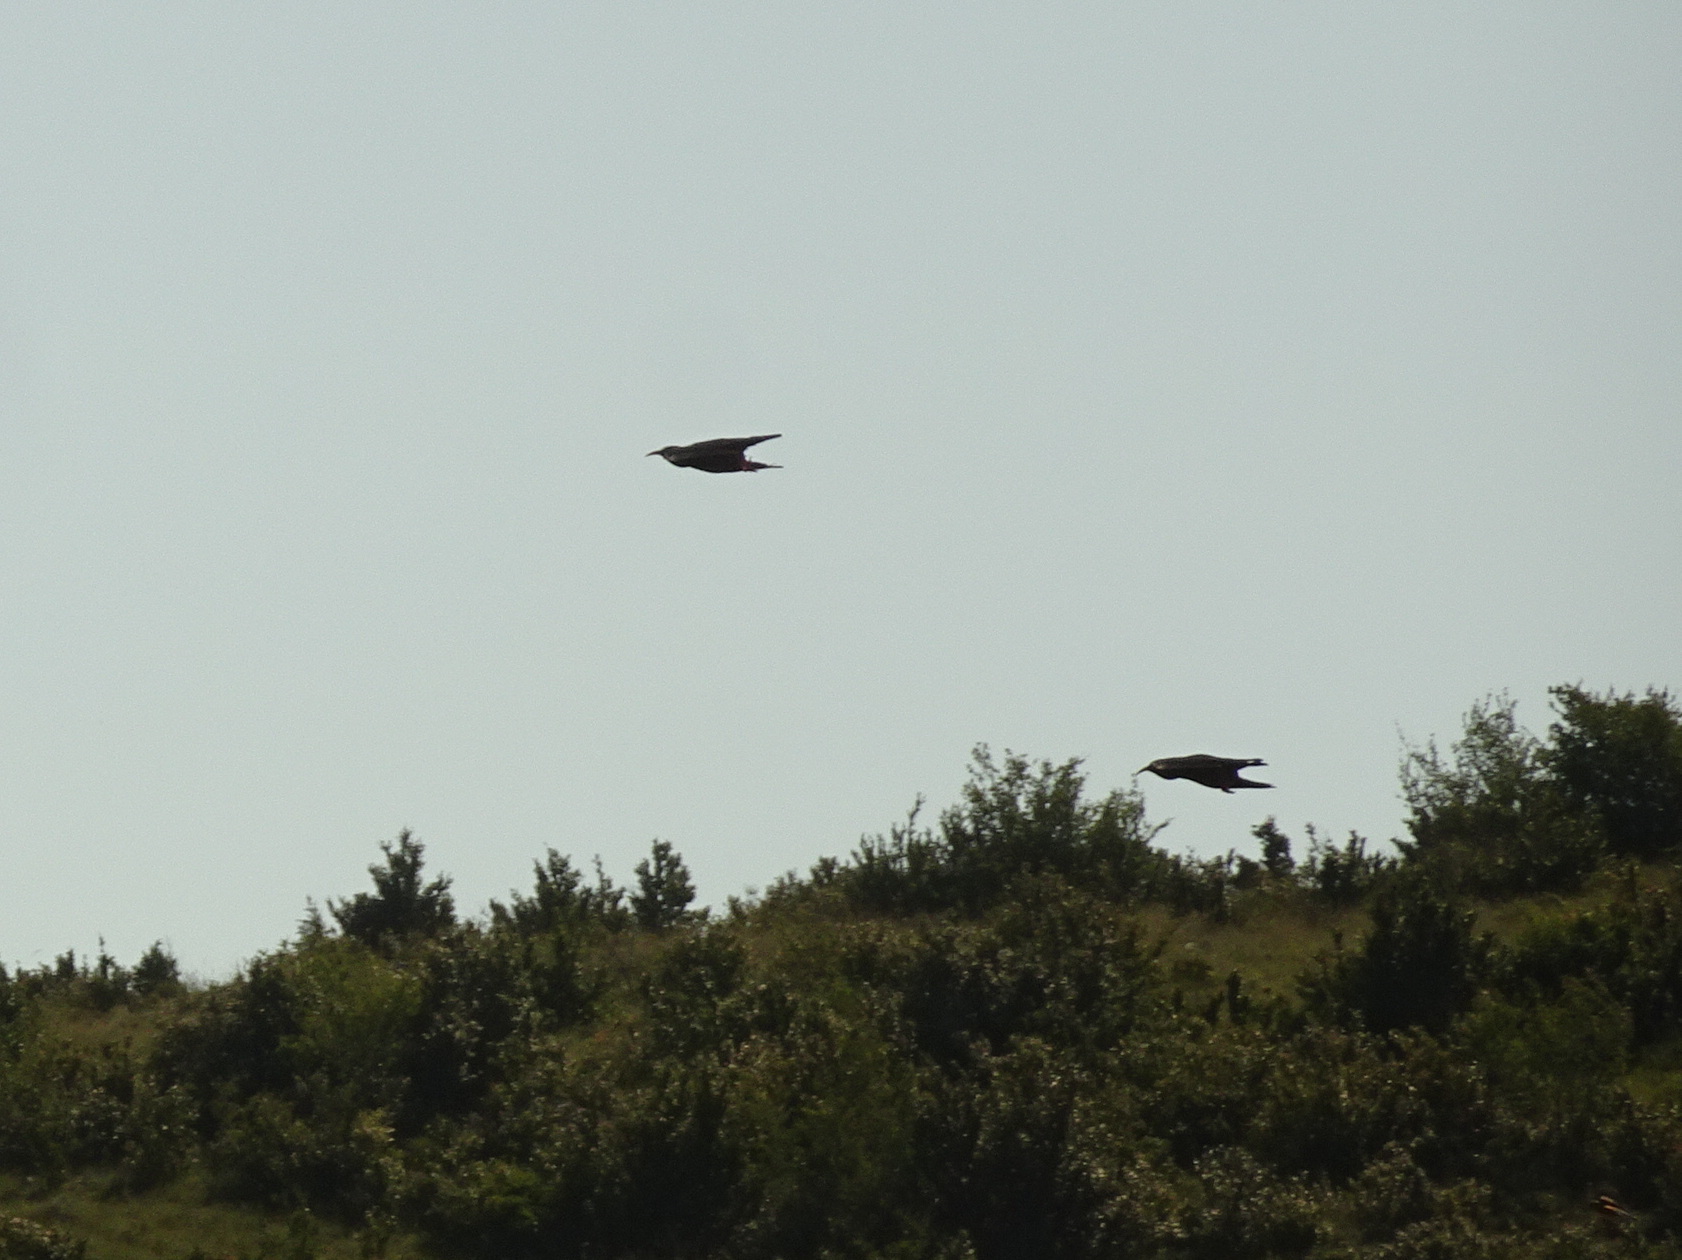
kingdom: Animalia
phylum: Chordata
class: Aves
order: Passeriformes
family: Corvidae
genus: Pyrrhocorax
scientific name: Pyrrhocorax pyrrhocorax
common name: Red-billed chough
